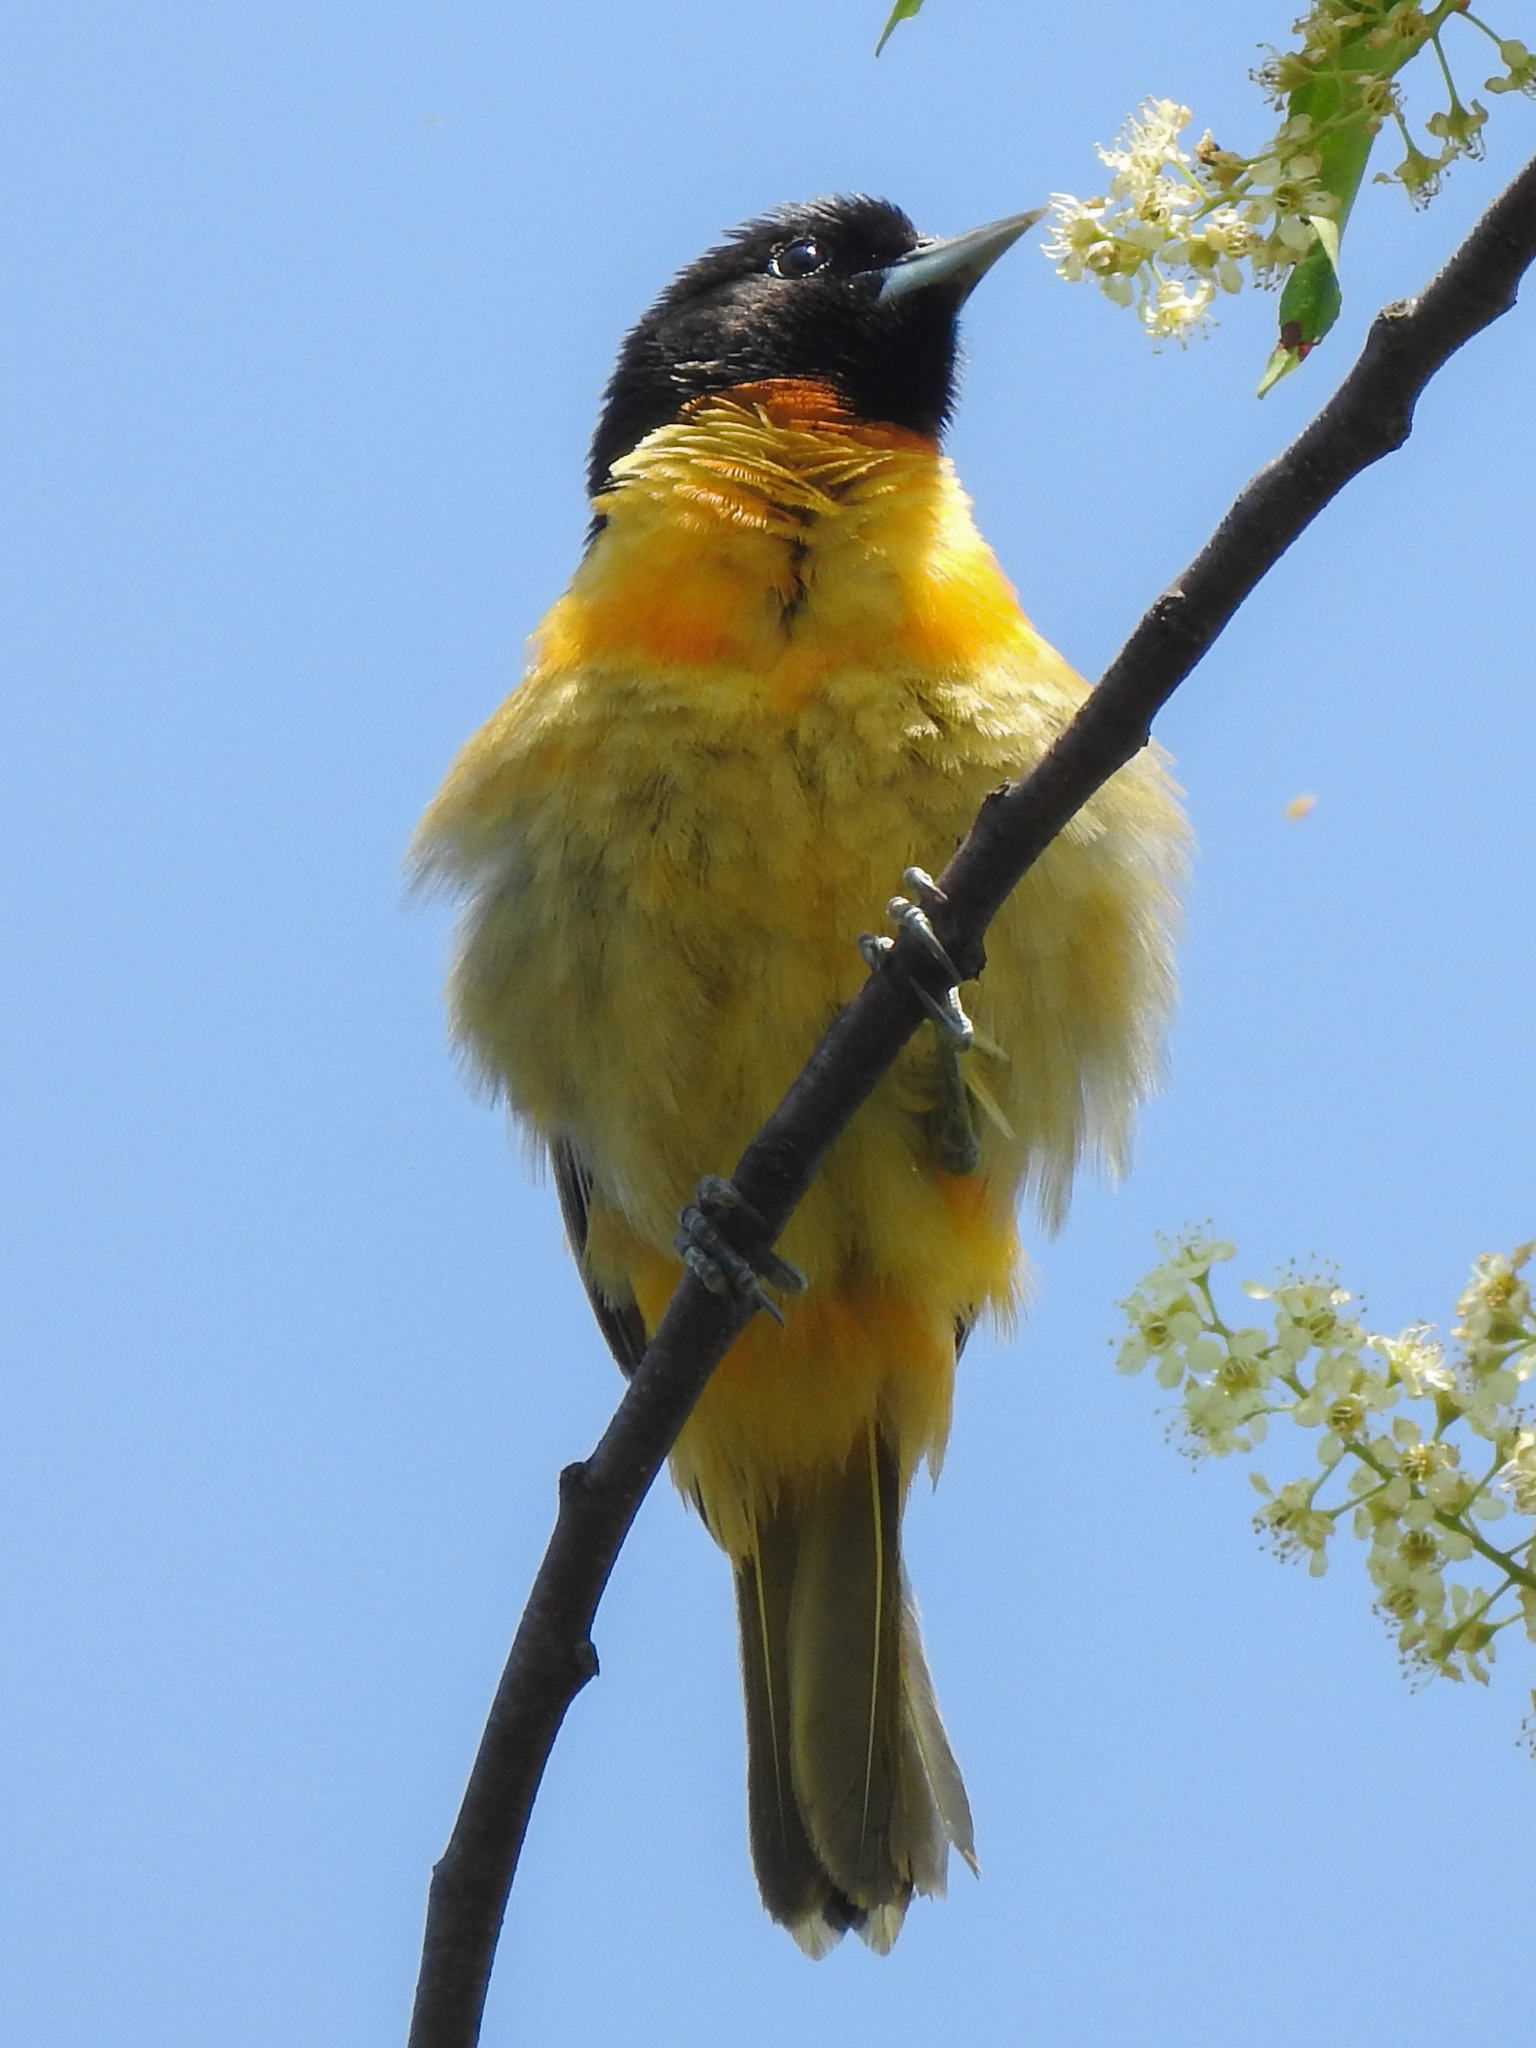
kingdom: Animalia
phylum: Chordata
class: Aves
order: Passeriformes
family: Icteridae
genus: Icterus
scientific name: Icterus galbula
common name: Baltimore oriole
